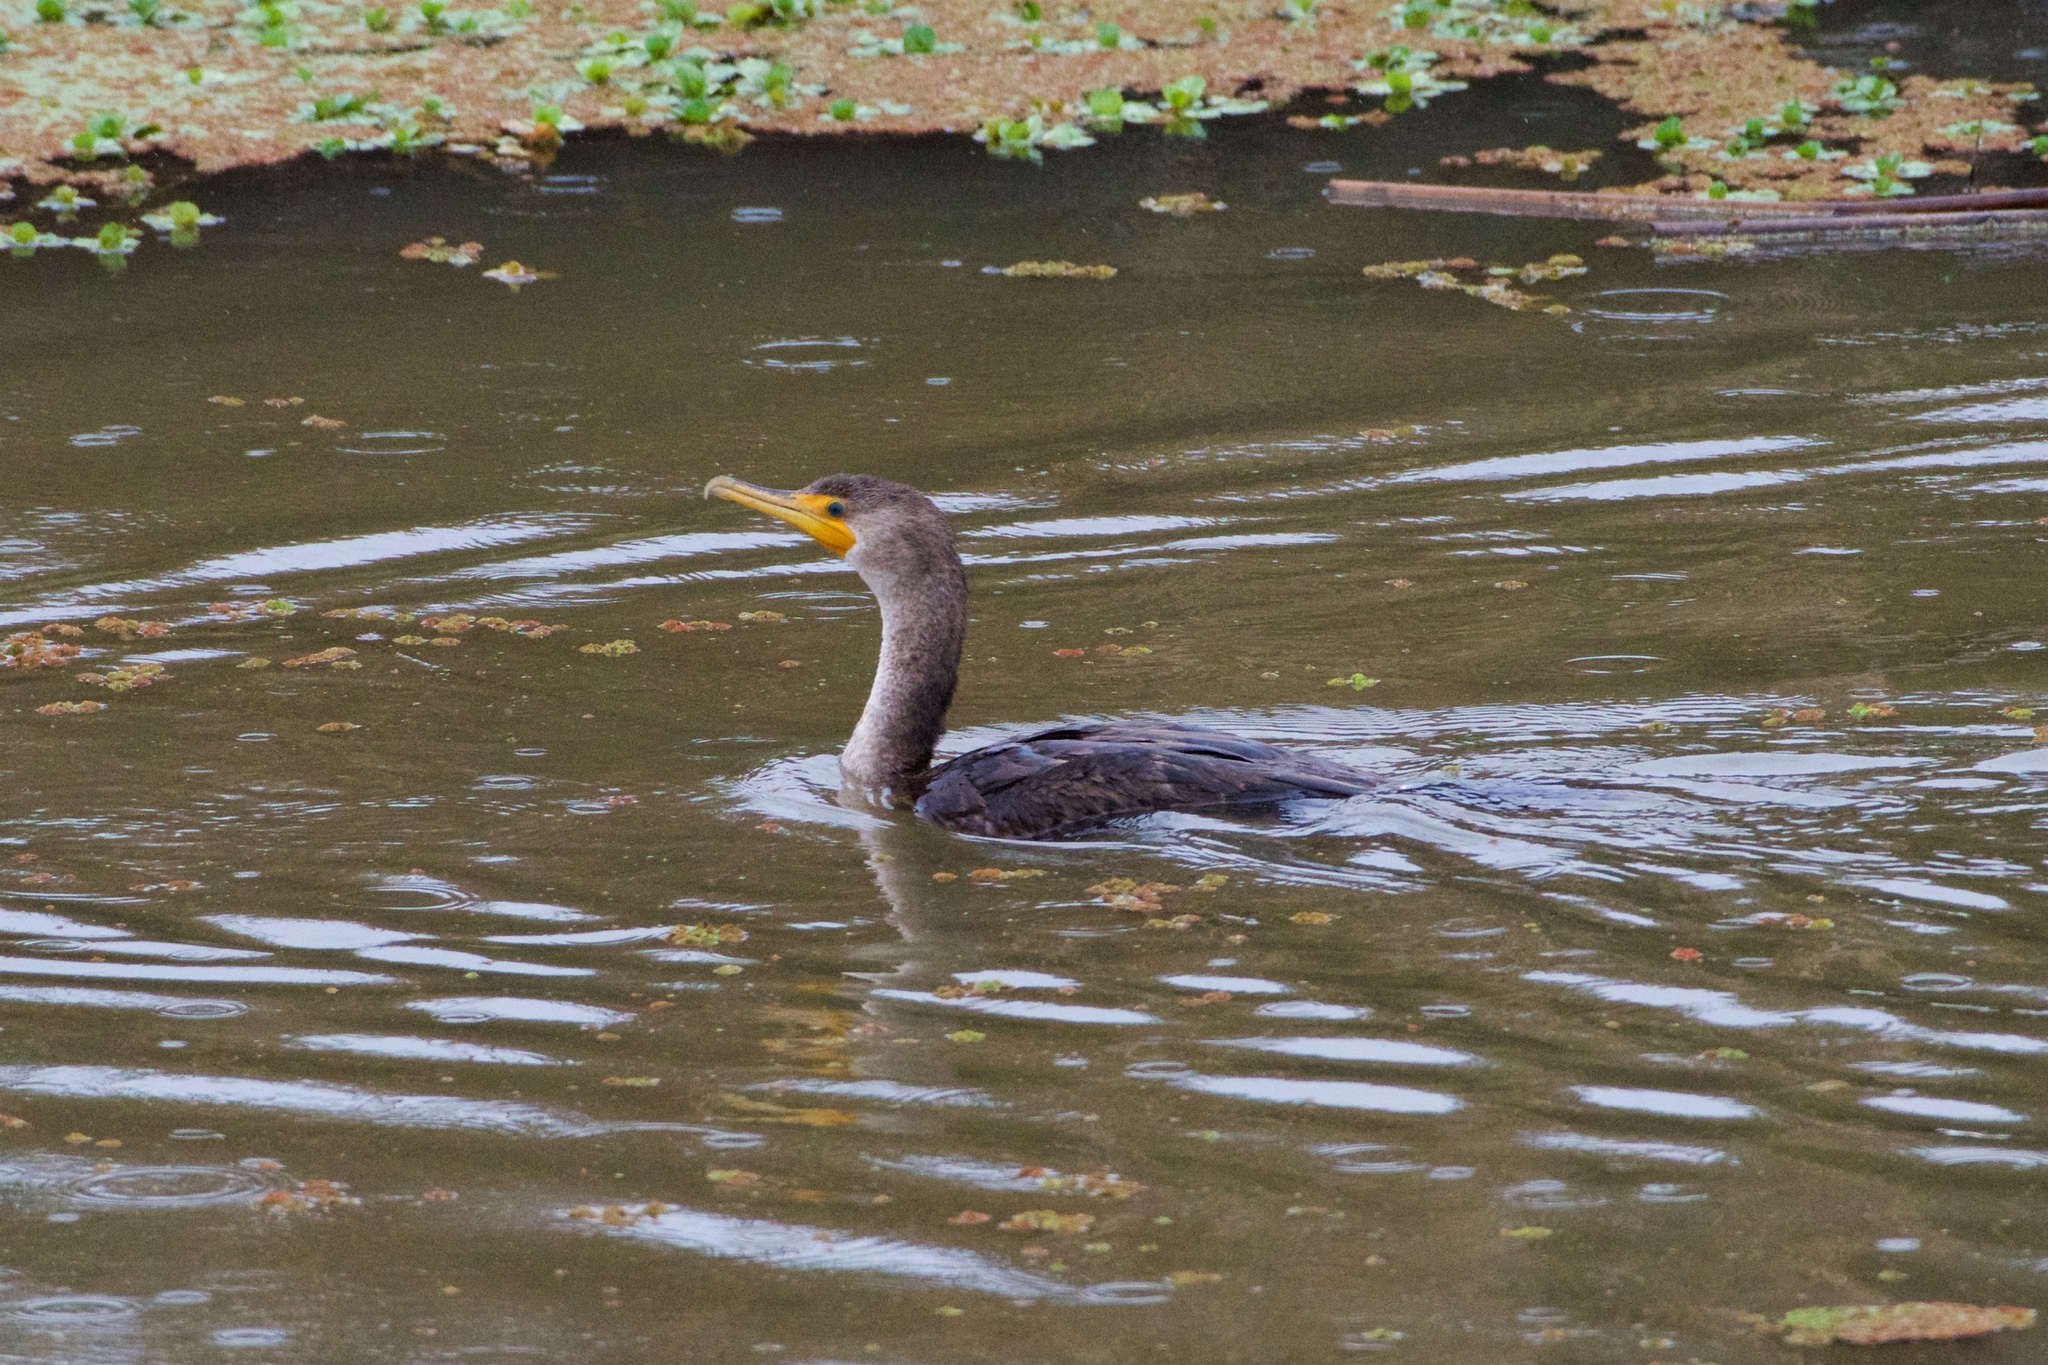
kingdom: Animalia
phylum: Chordata
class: Aves
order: Suliformes
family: Phalacrocoracidae
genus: Phalacrocorax
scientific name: Phalacrocorax auritus
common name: Double-crested cormorant
